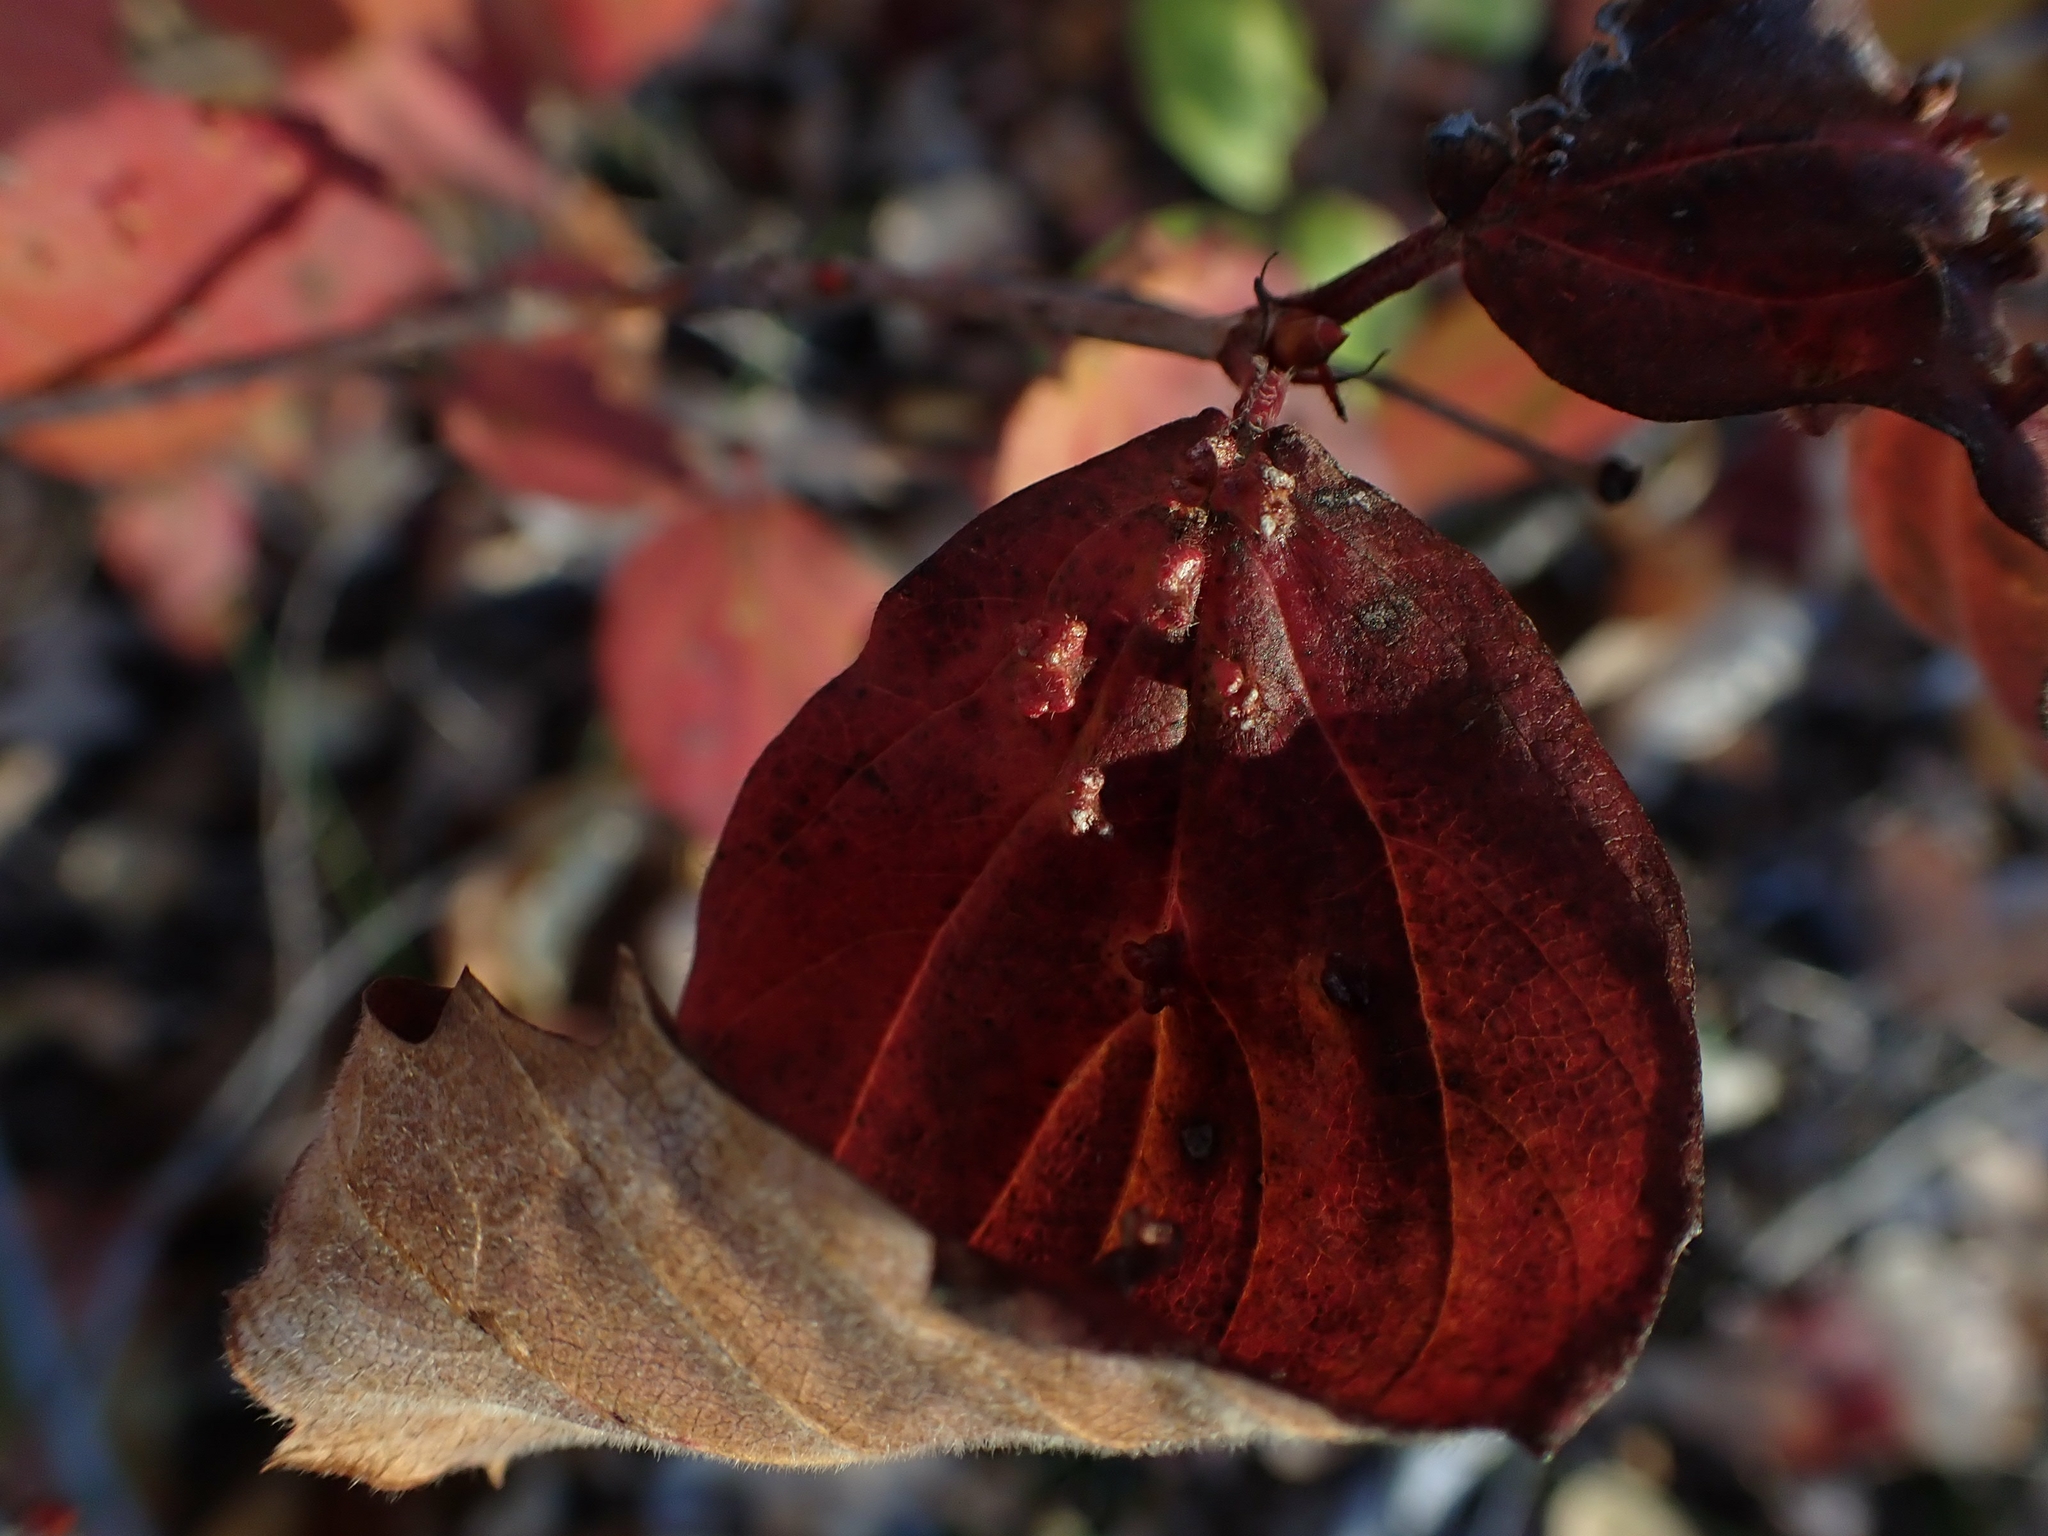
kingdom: Animalia
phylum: Arthropoda
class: Arachnida
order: Trombidiformes
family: Eriophyidae
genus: Eriophyes
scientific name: Eriophyes
